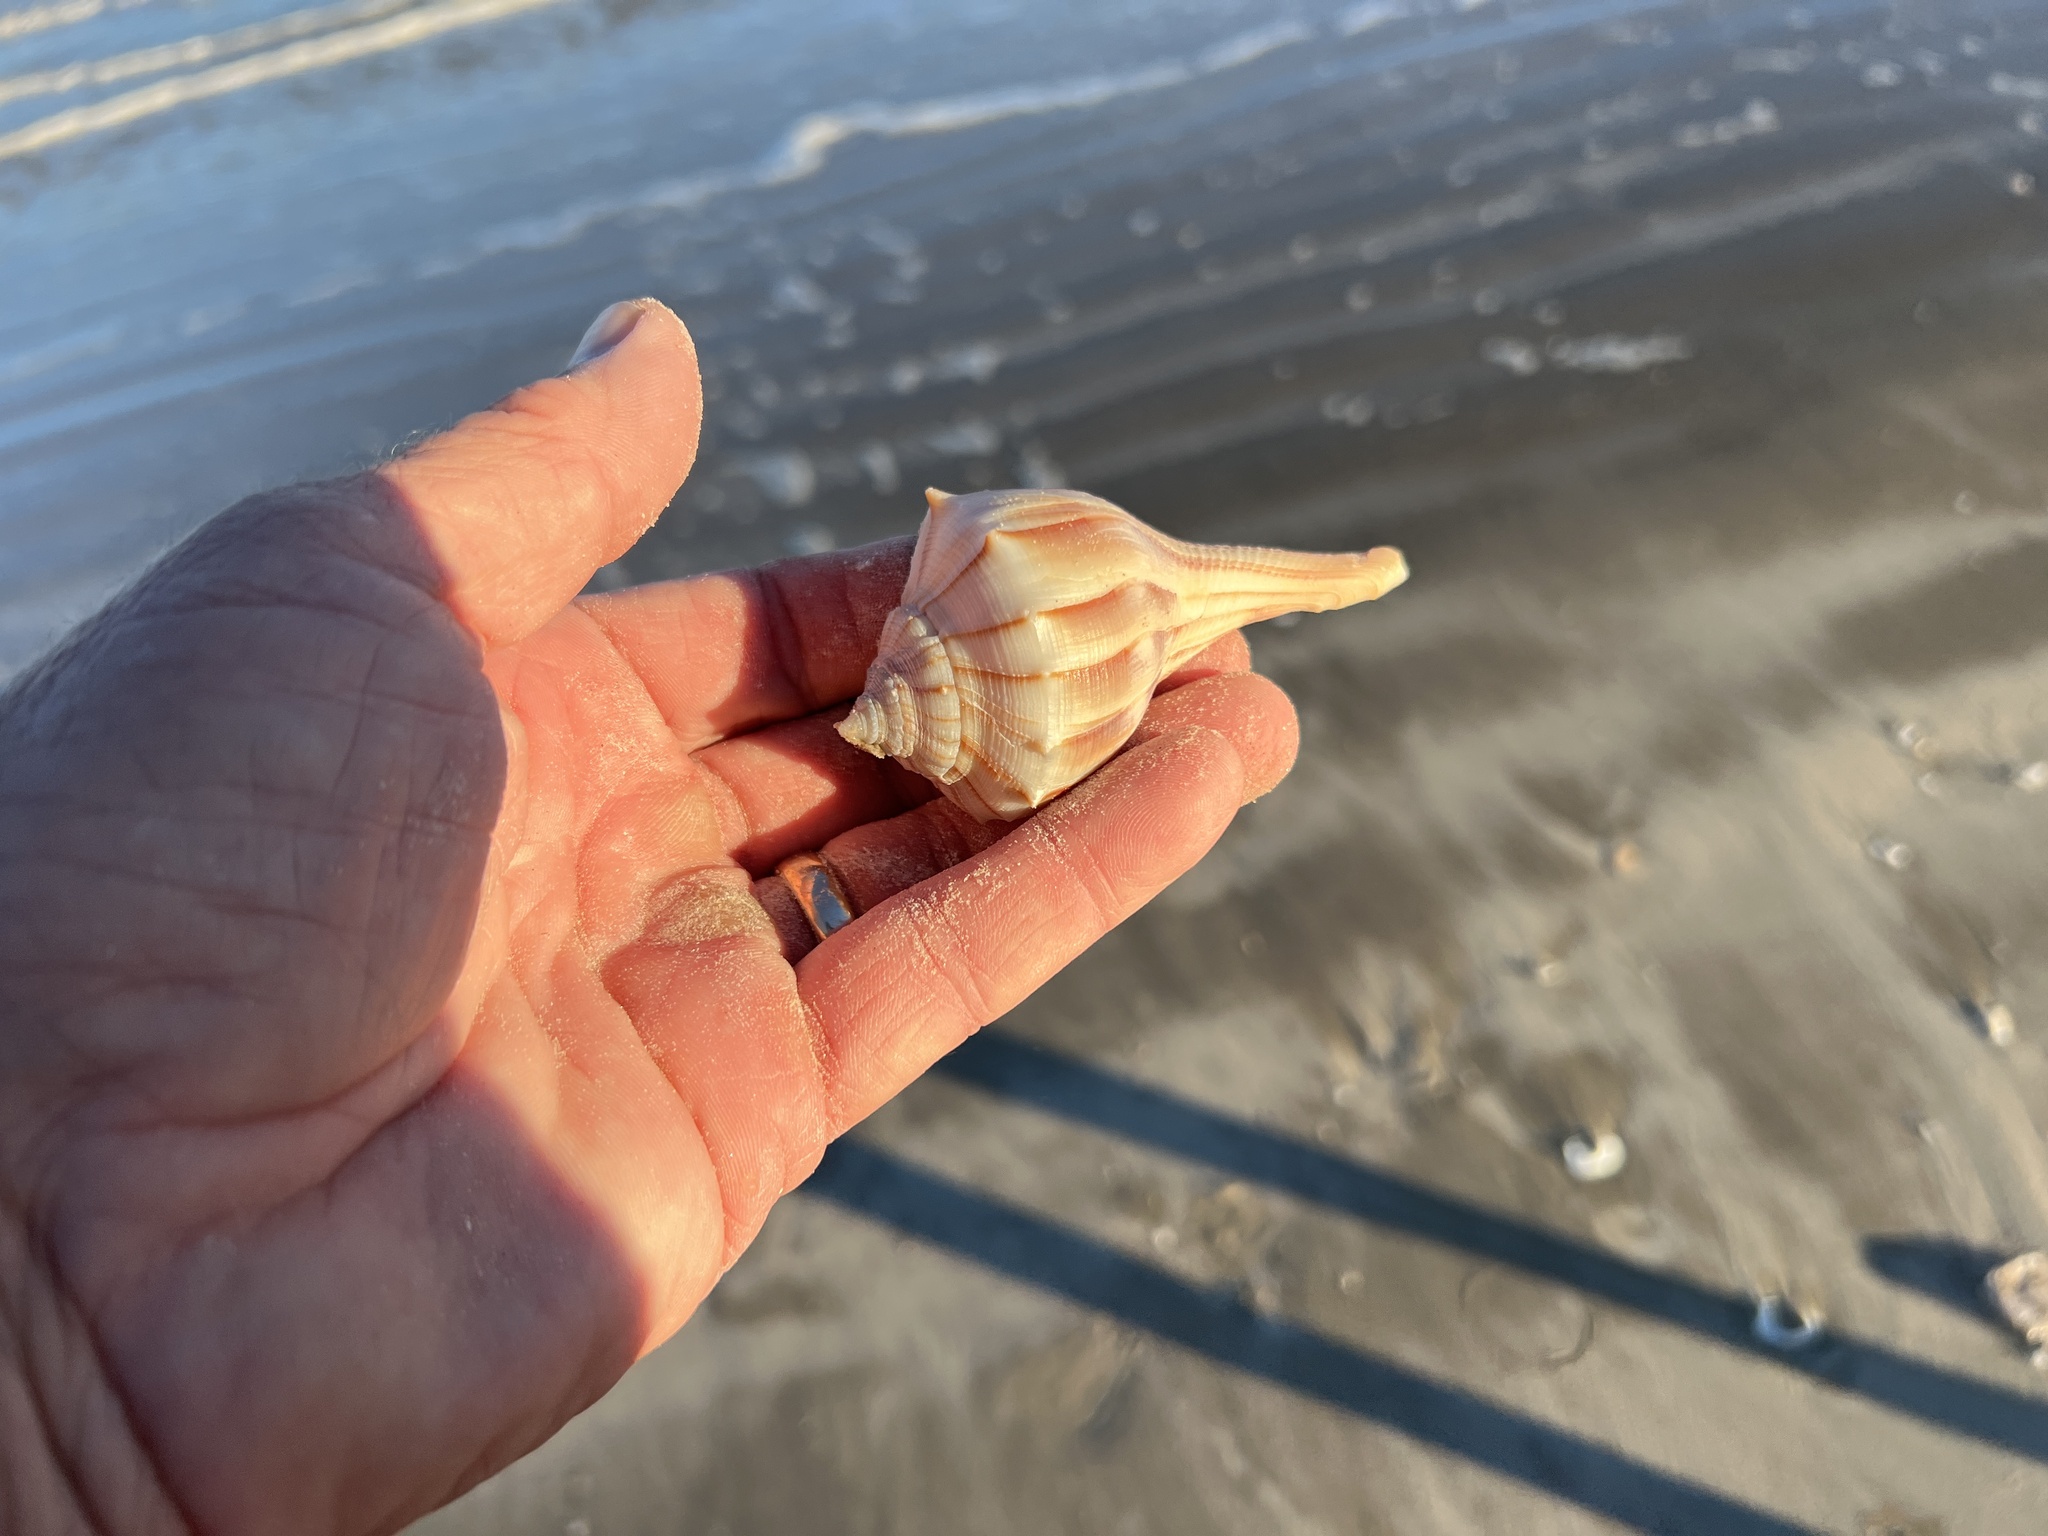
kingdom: Animalia
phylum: Mollusca
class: Gastropoda
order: Neogastropoda
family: Busyconidae
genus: Sinistrofulgur
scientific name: Sinistrofulgur pulleyi
